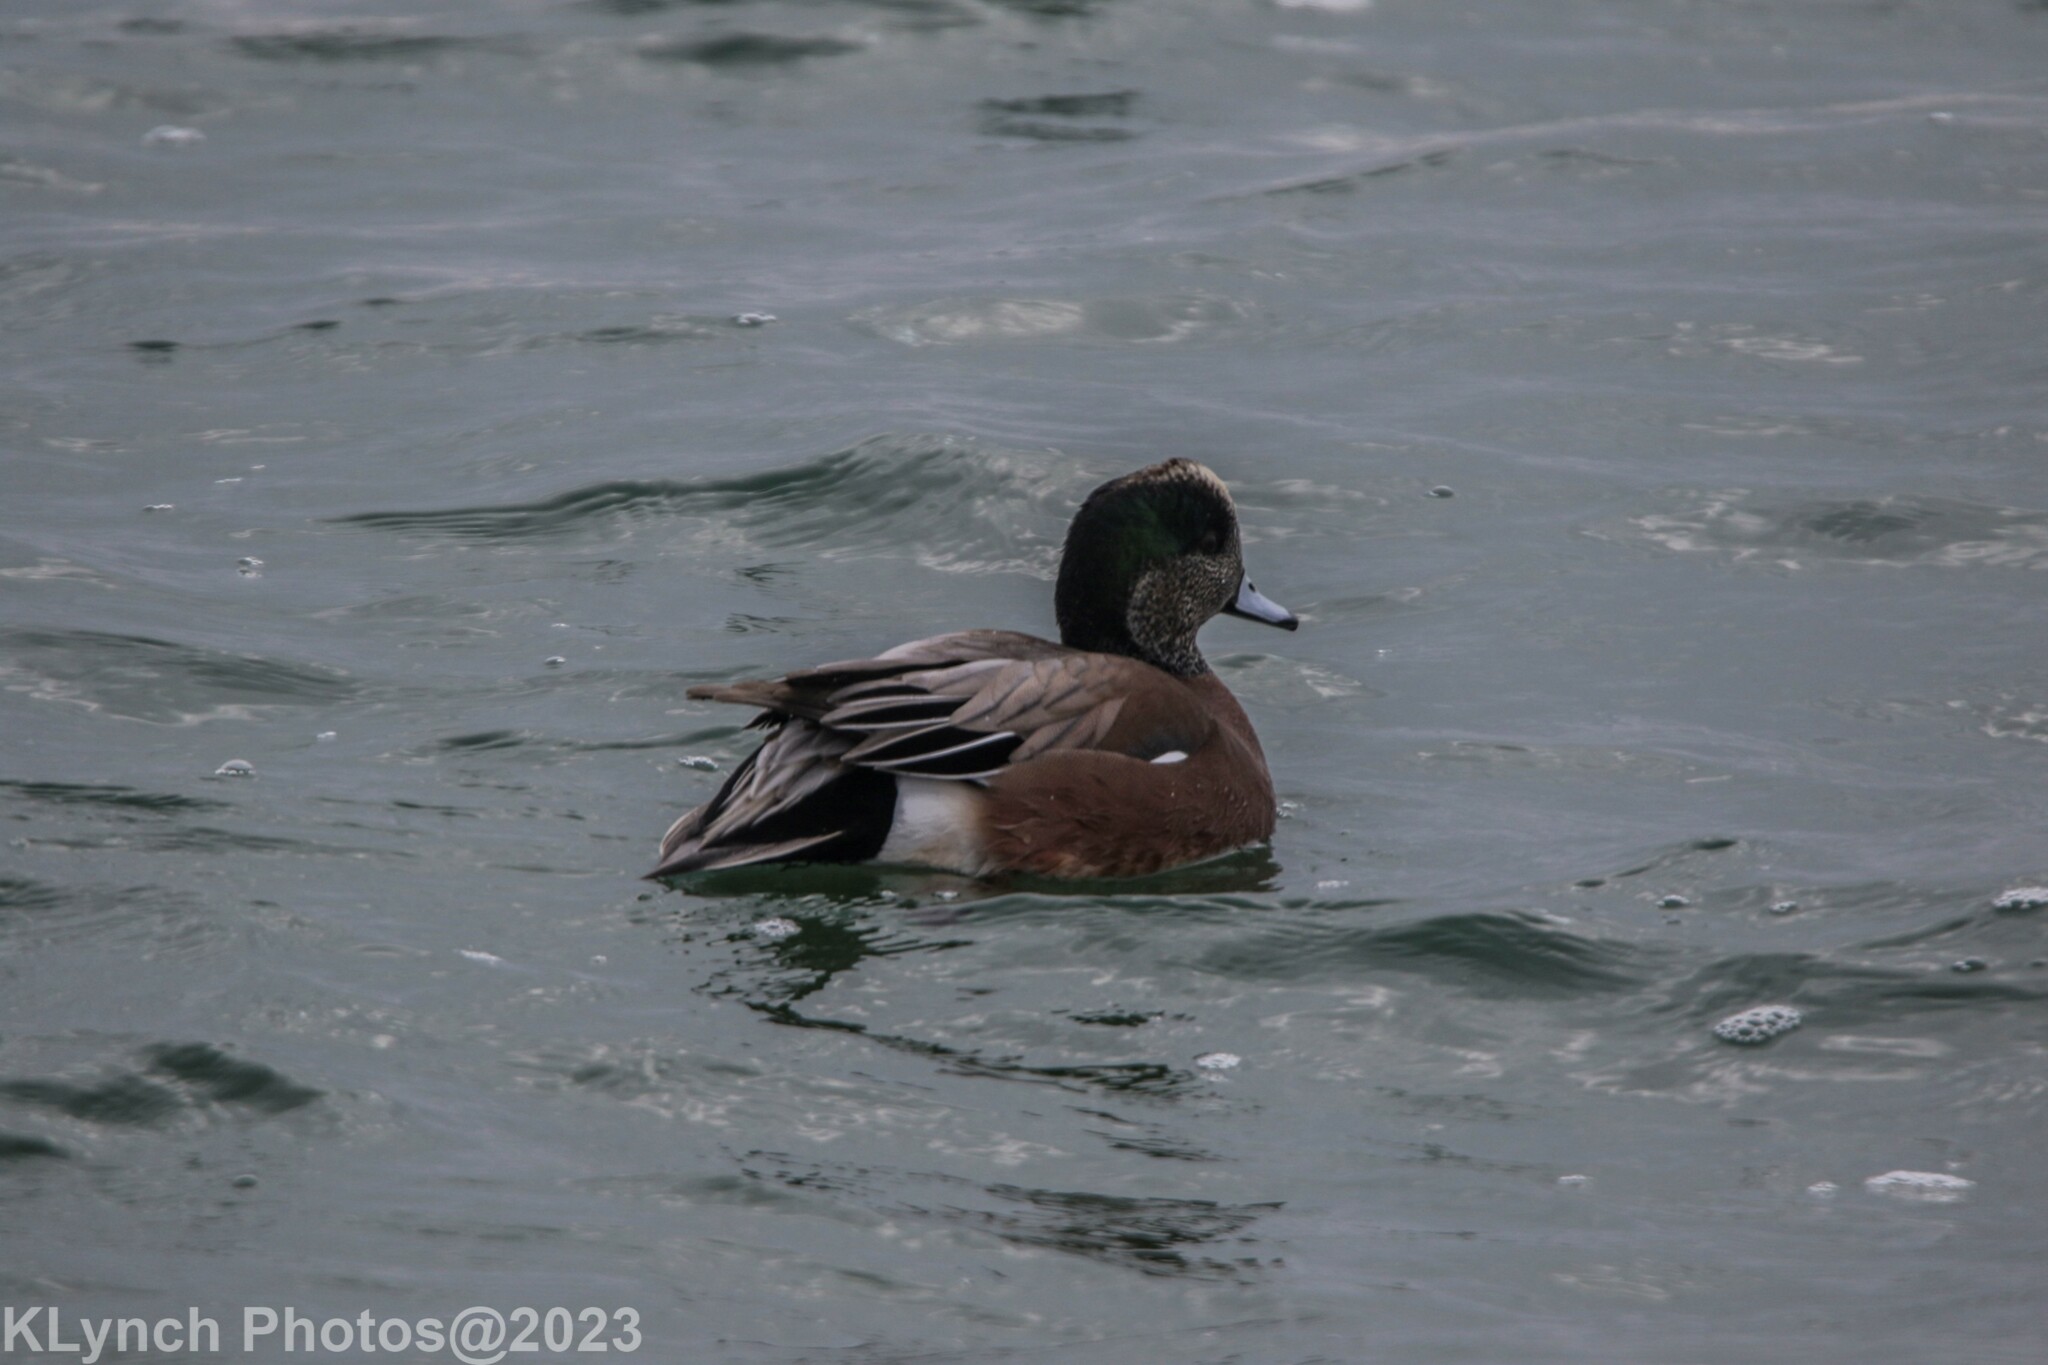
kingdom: Animalia
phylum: Chordata
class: Aves
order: Anseriformes
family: Anatidae
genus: Mareca
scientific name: Mareca americana
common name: American wigeon
